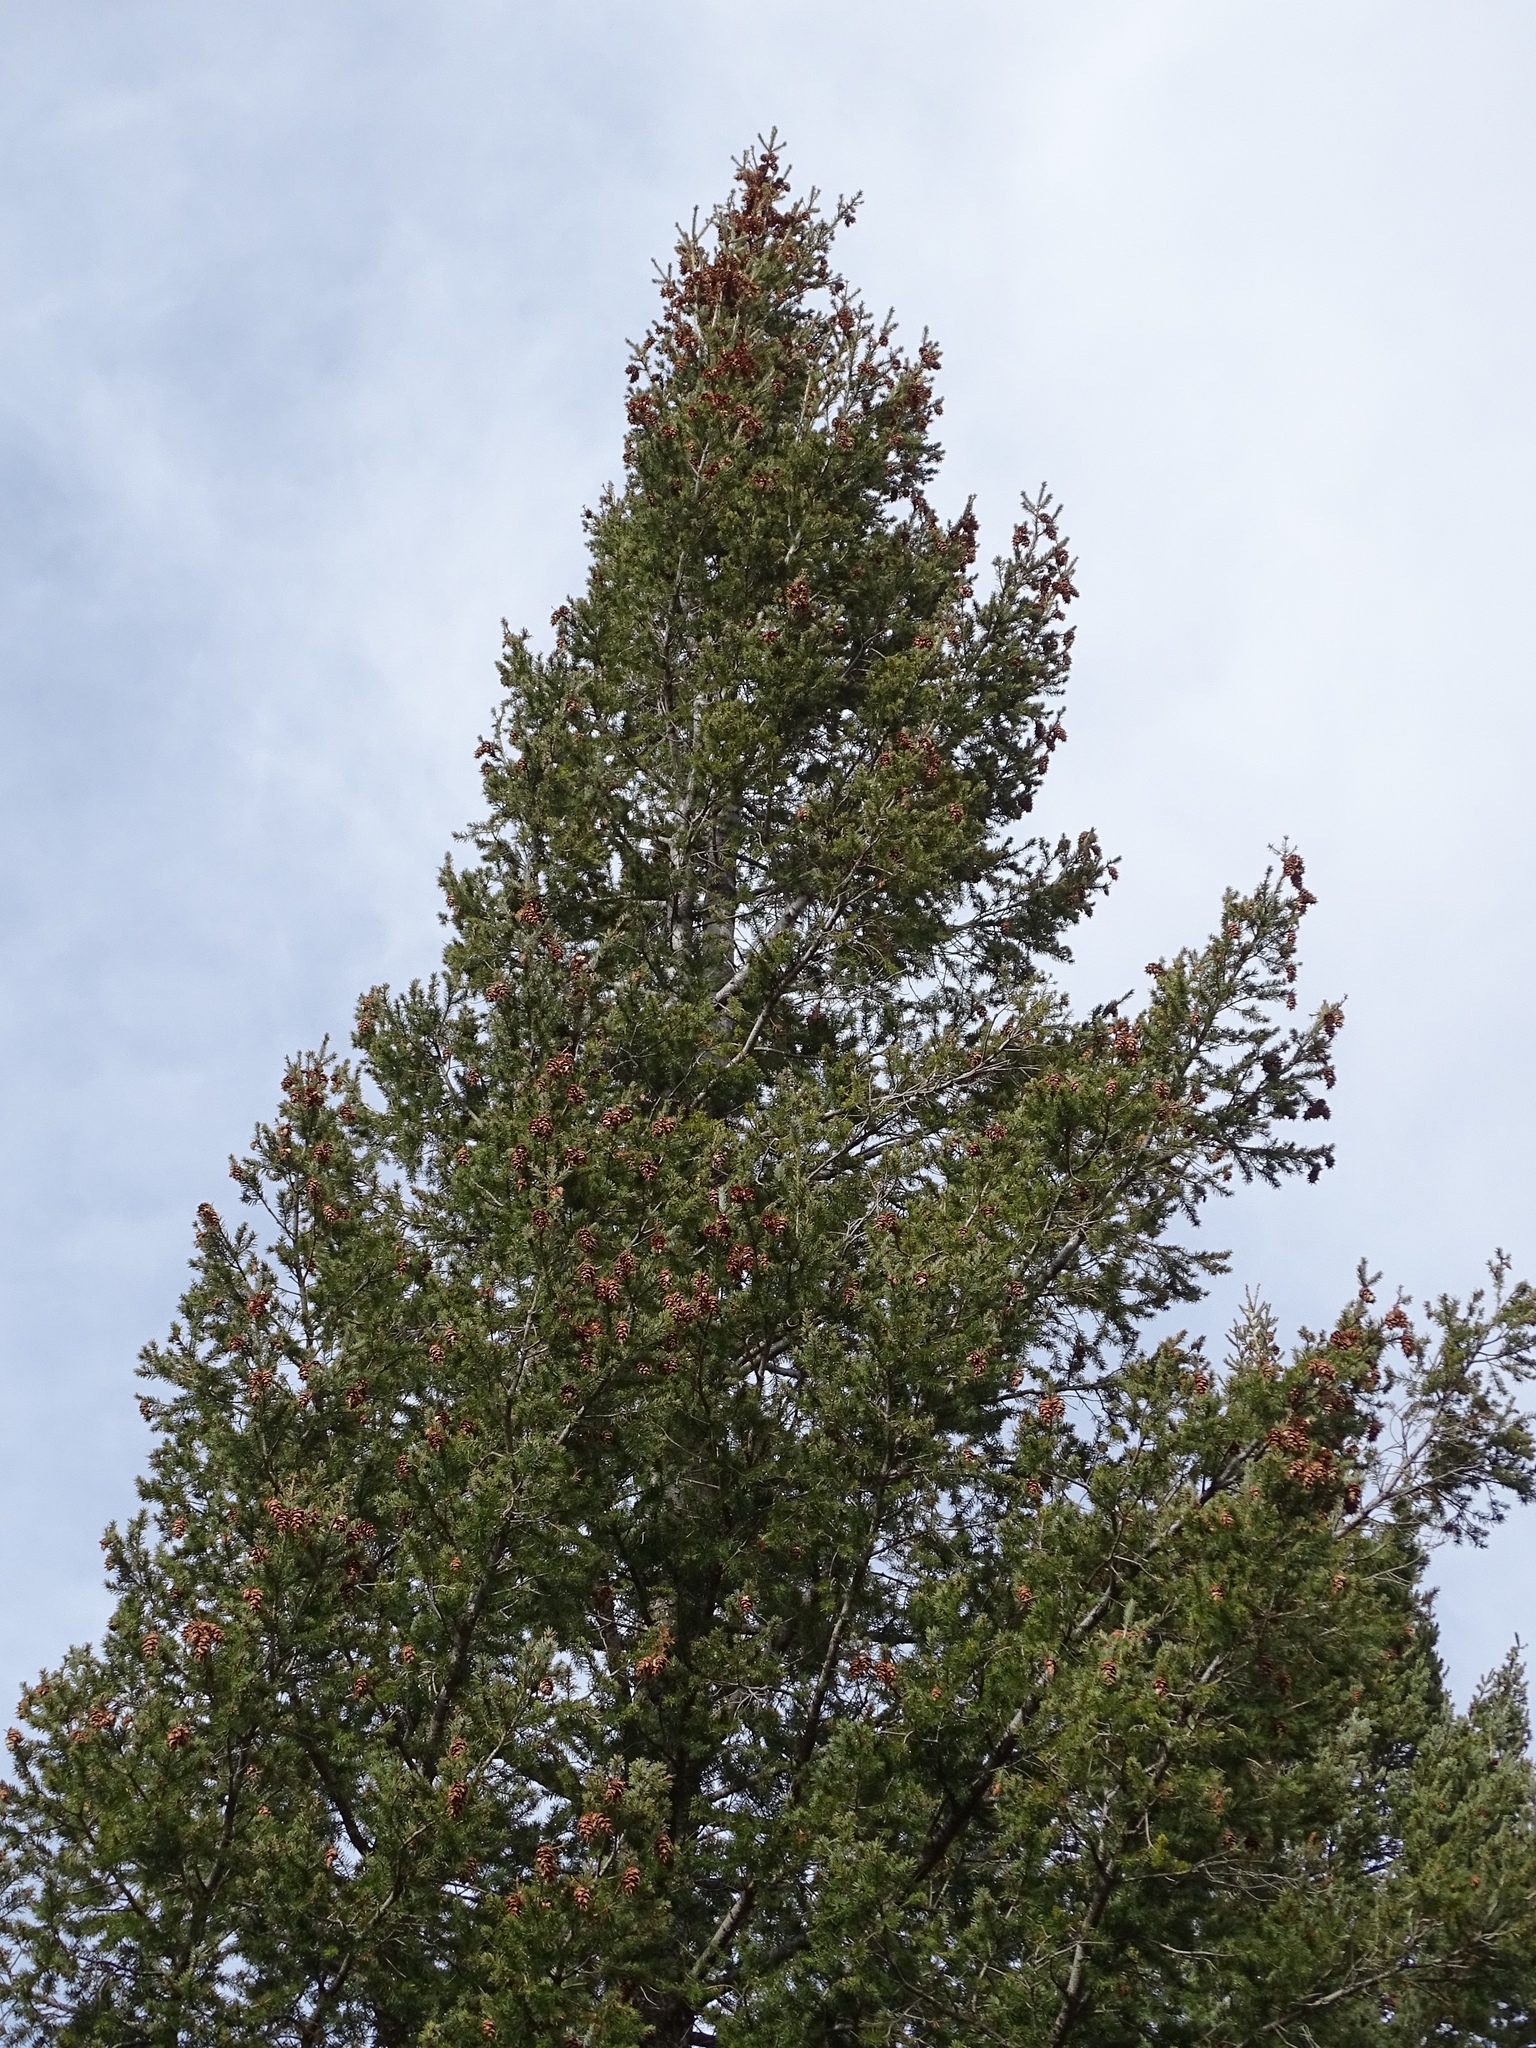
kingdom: Plantae
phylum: Tracheophyta
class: Pinopsida
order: Pinales
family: Pinaceae
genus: Pseudotsuga
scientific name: Pseudotsuga menziesii
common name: Douglas fir
